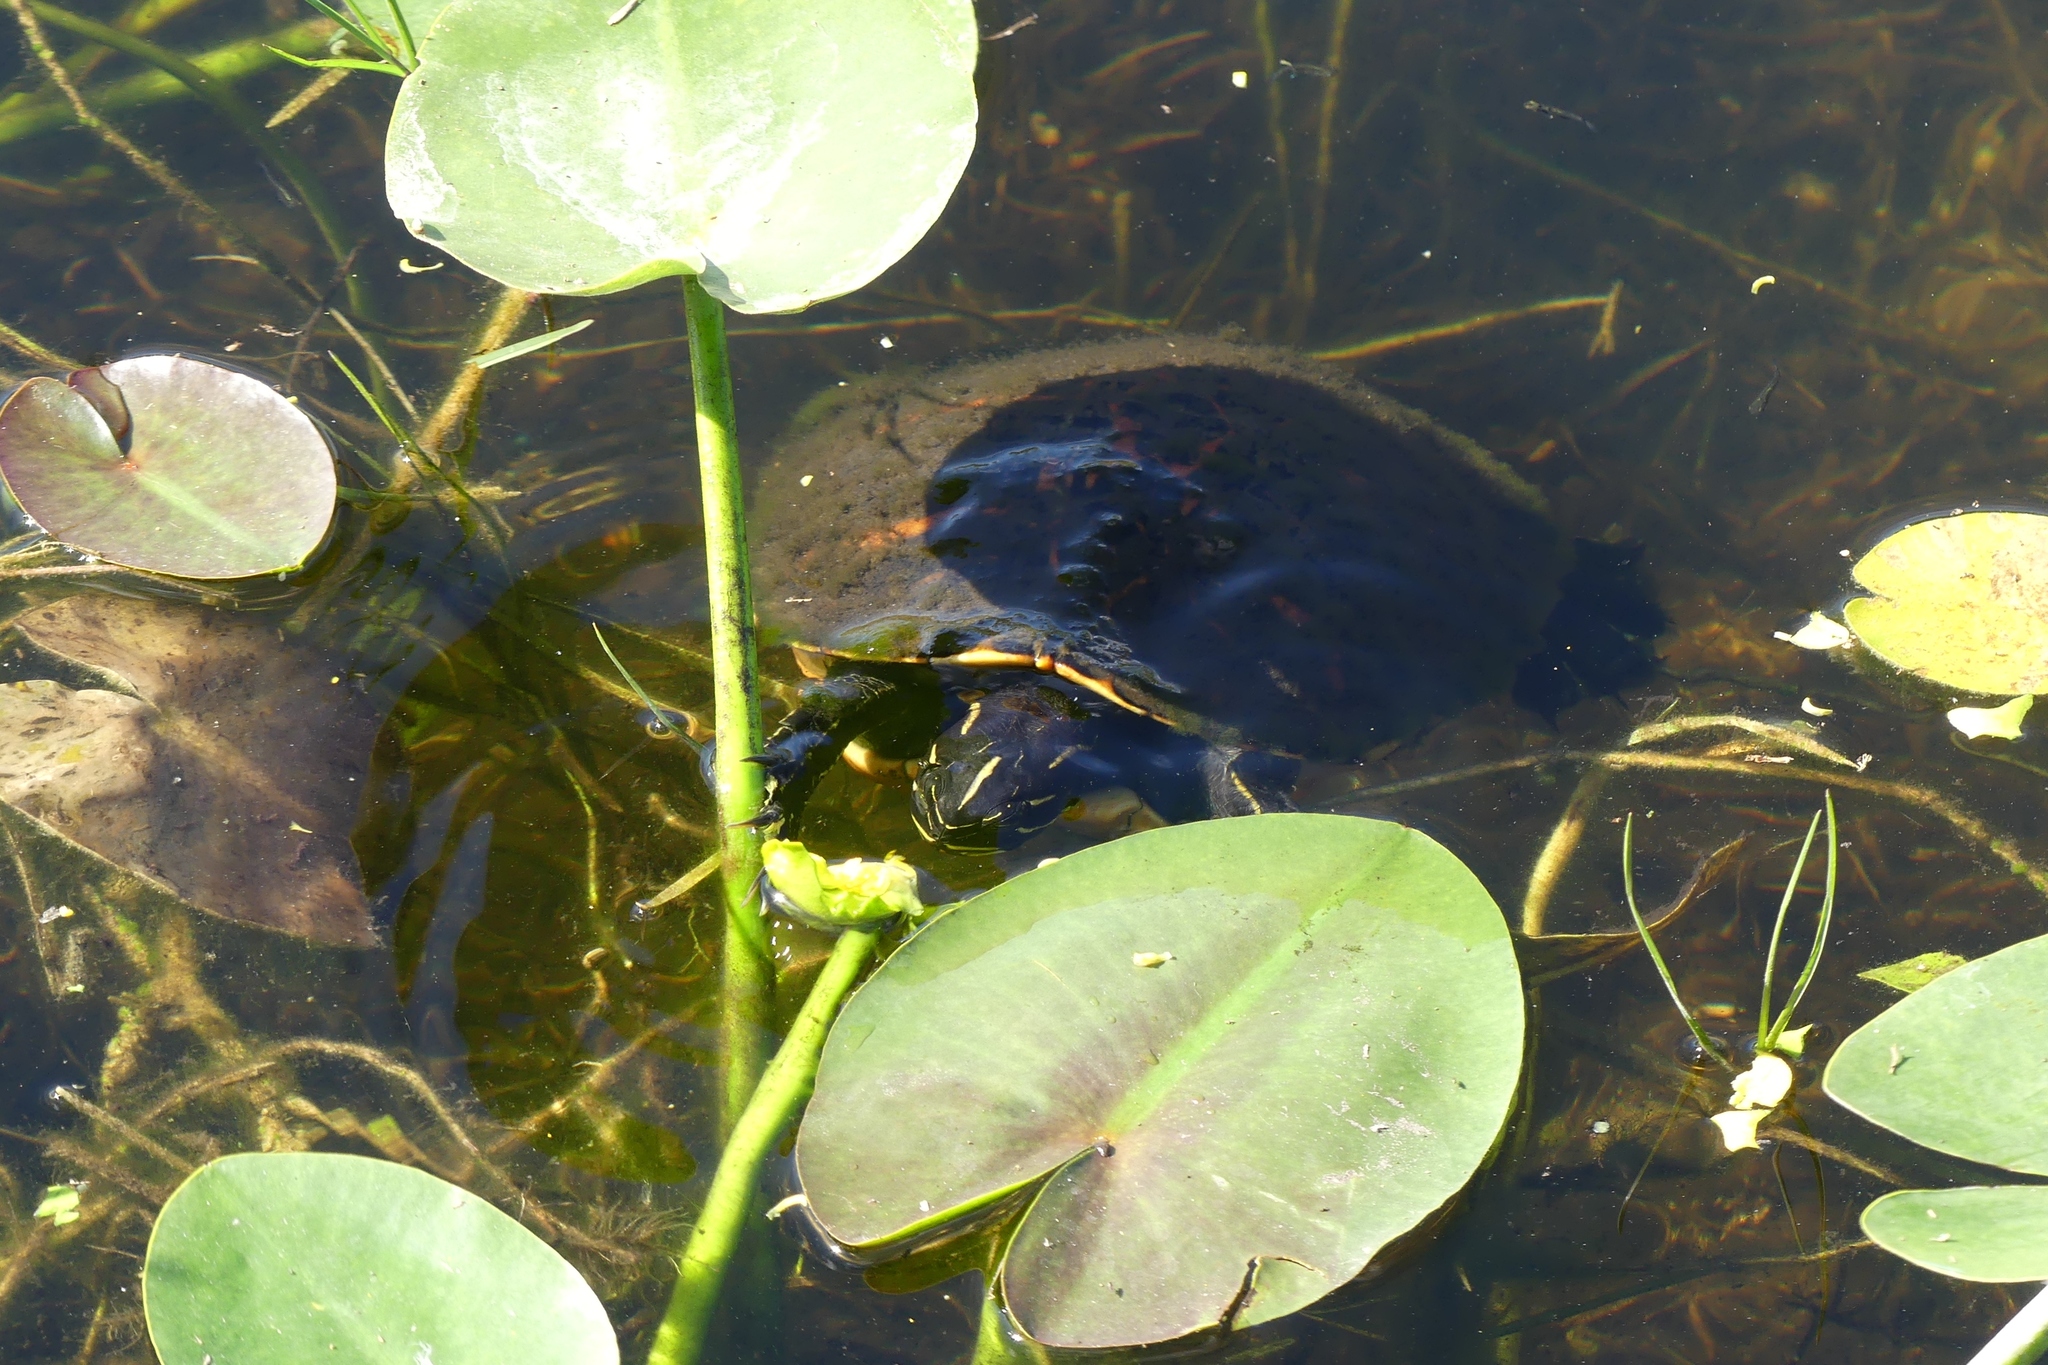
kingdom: Animalia
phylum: Chordata
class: Testudines
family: Emydidae
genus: Pseudemys
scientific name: Pseudemys nelsoni
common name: Florida red-bellied turtle
